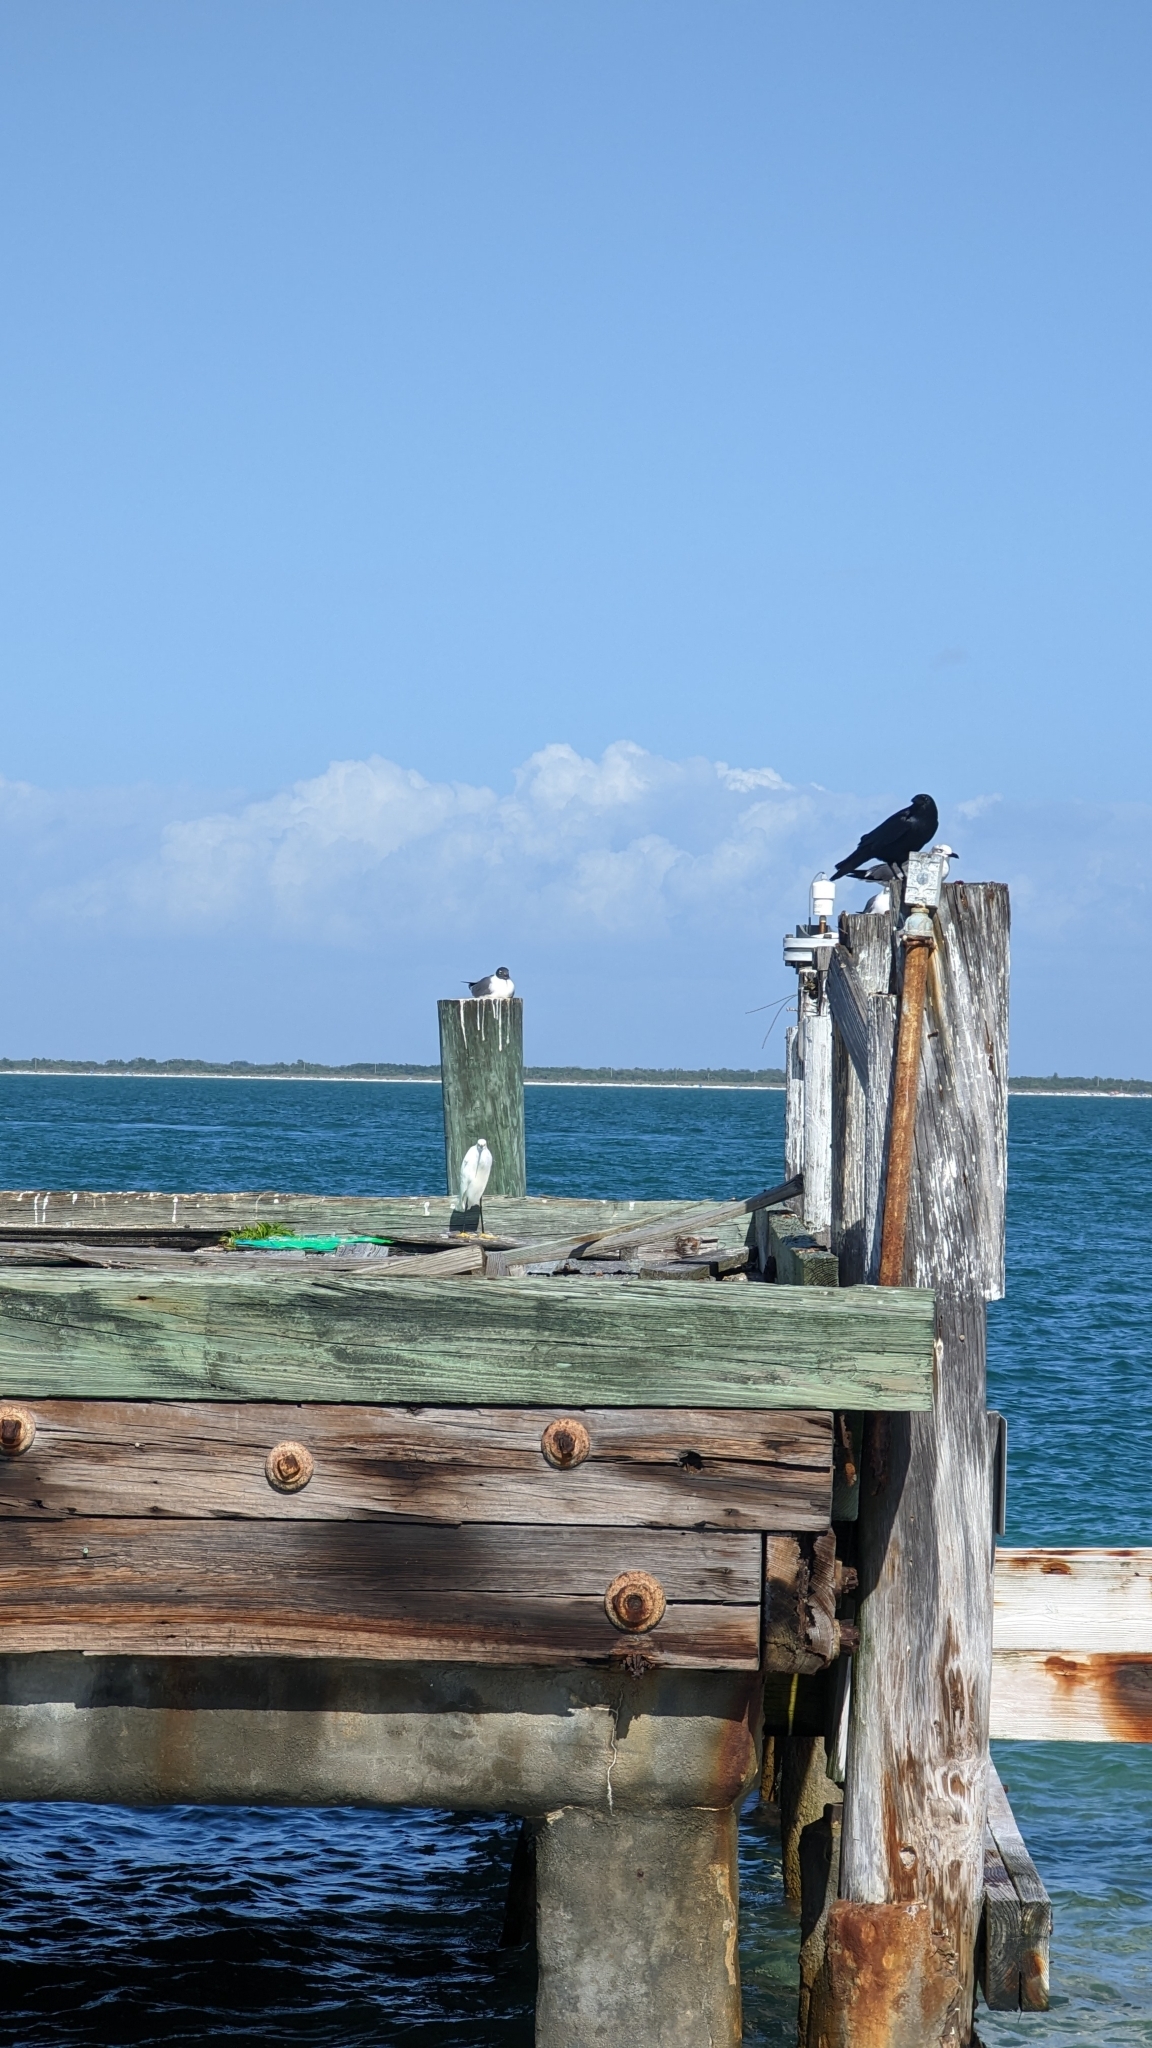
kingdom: Animalia
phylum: Chordata
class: Aves
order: Passeriformes
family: Corvidae
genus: Corvus
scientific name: Corvus ossifragus
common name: Fish crow
